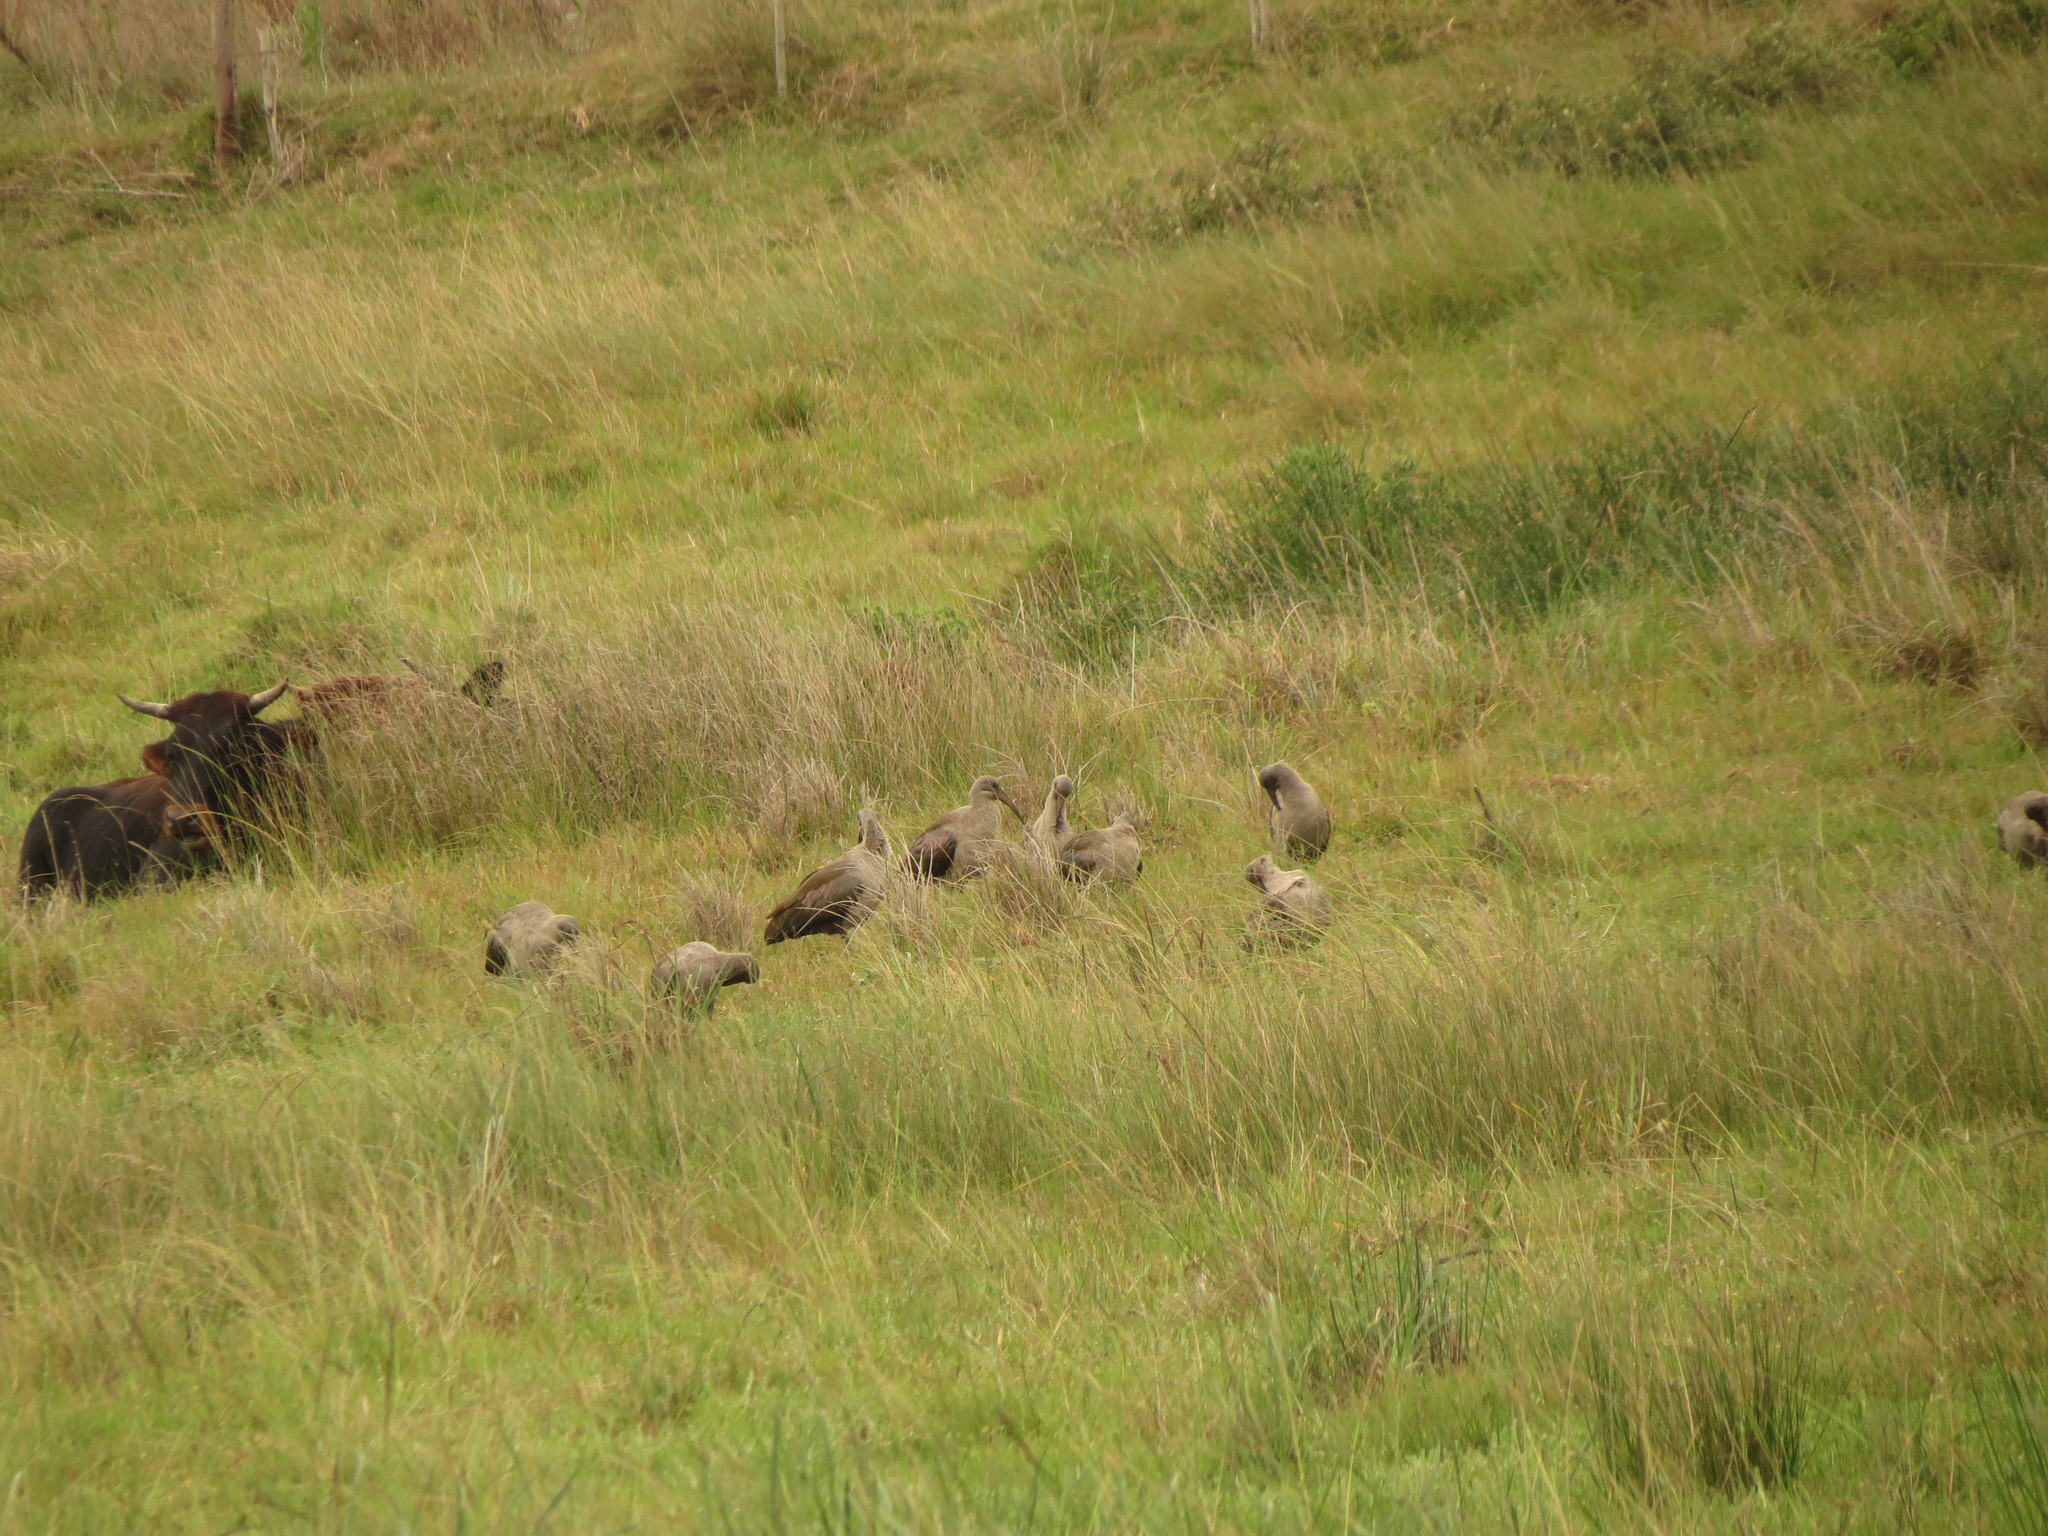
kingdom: Animalia
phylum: Chordata
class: Aves
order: Pelecaniformes
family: Threskiornithidae
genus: Bostrychia
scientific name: Bostrychia hagedash
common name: Hadada ibis
